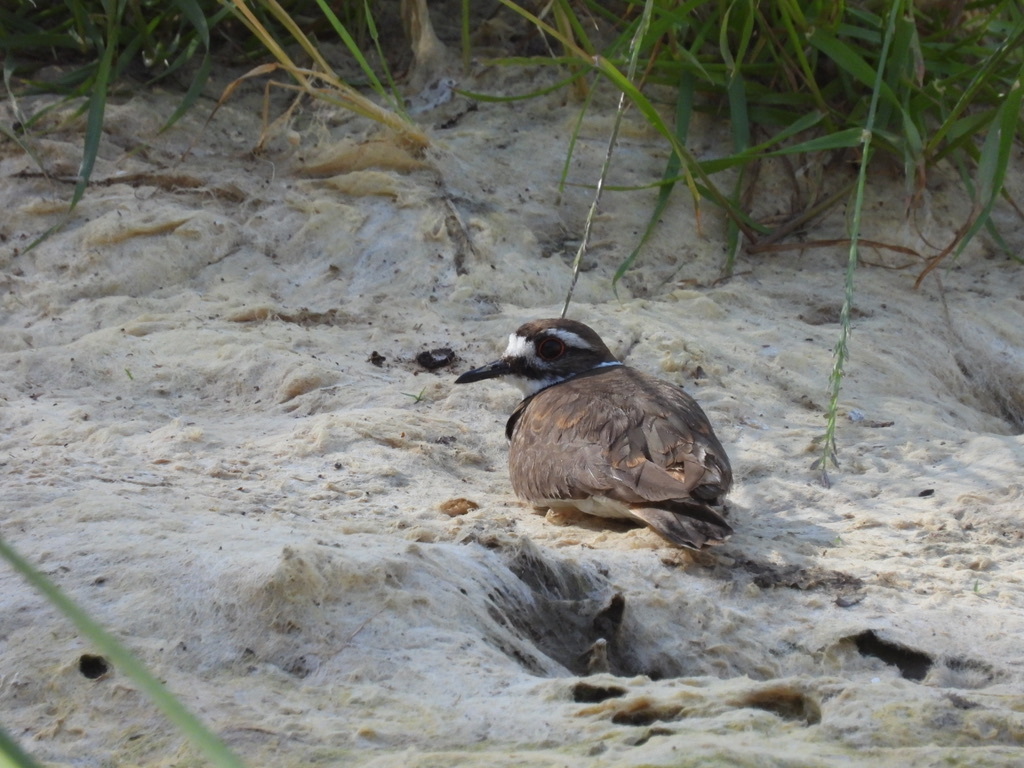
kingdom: Animalia
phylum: Chordata
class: Aves
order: Charadriiformes
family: Charadriidae
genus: Charadrius
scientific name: Charadrius vociferus
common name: Killdeer
